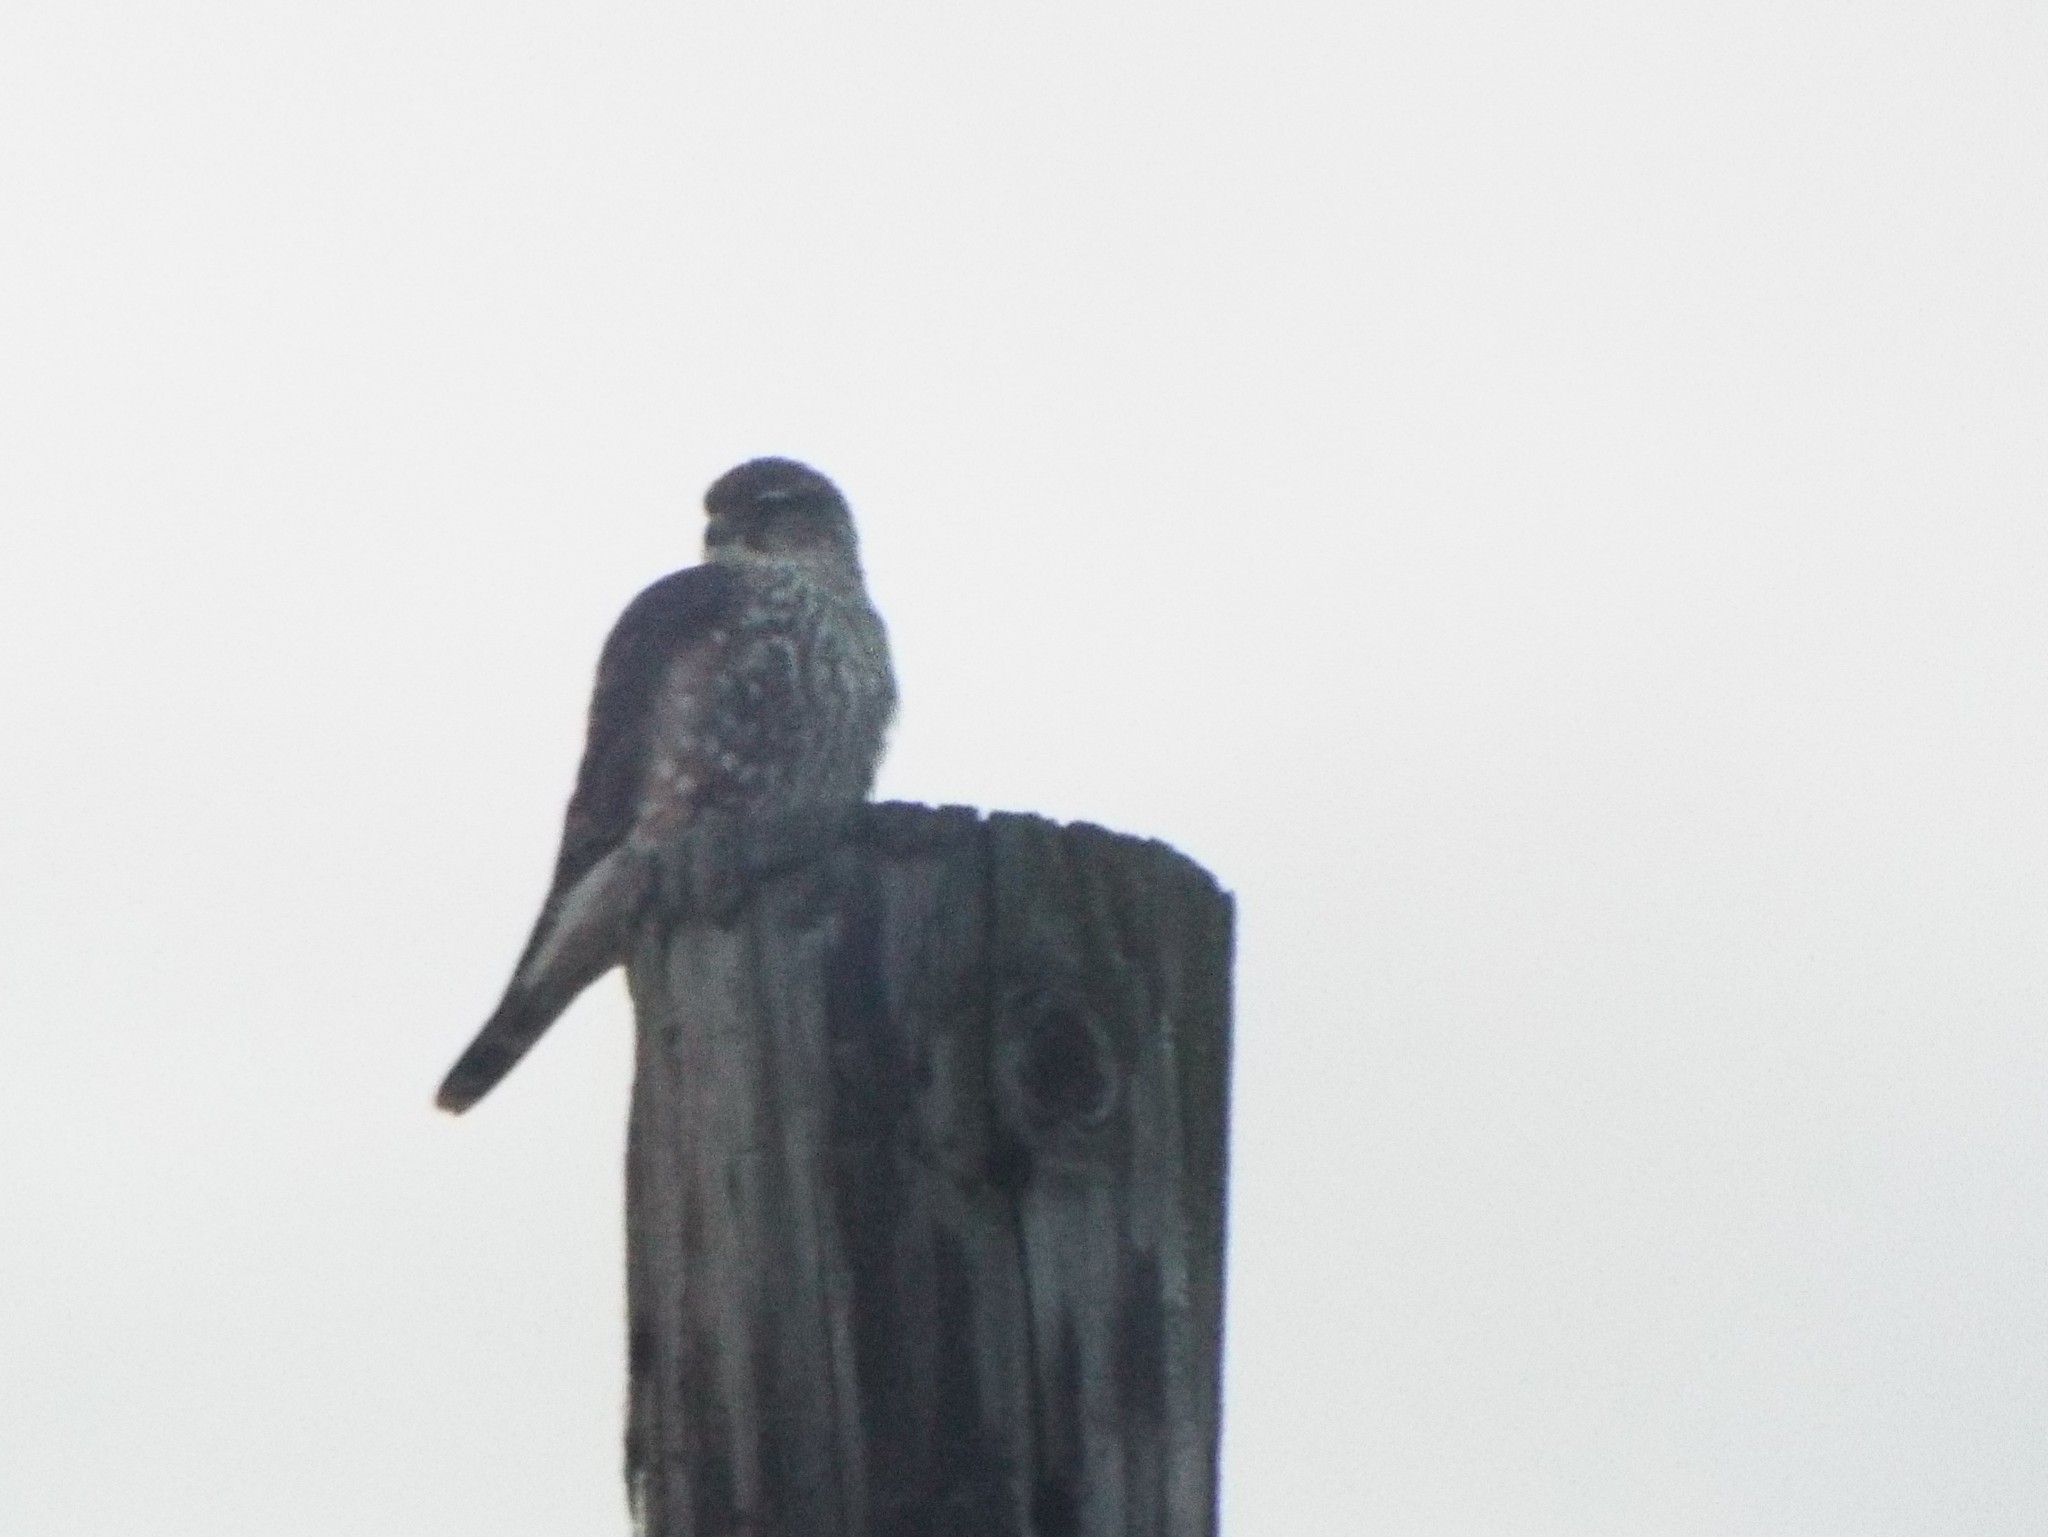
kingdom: Animalia
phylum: Chordata
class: Aves
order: Falconiformes
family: Falconidae
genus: Falco
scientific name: Falco columbarius
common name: Merlin
